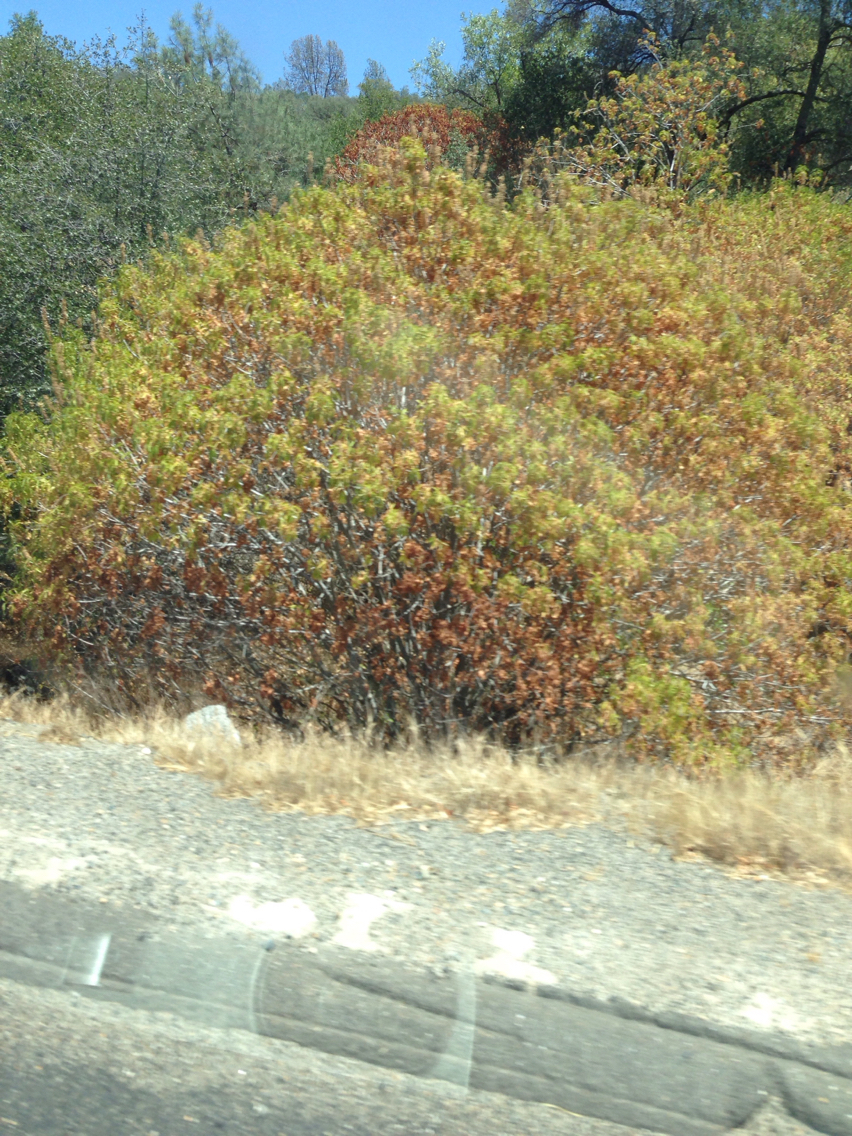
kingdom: Plantae
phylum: Tracheophyta
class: Magnoliopsida
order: Sapindales
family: Sapindaceae
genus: Aesculus
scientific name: Aesculus californica
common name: California buckeye
